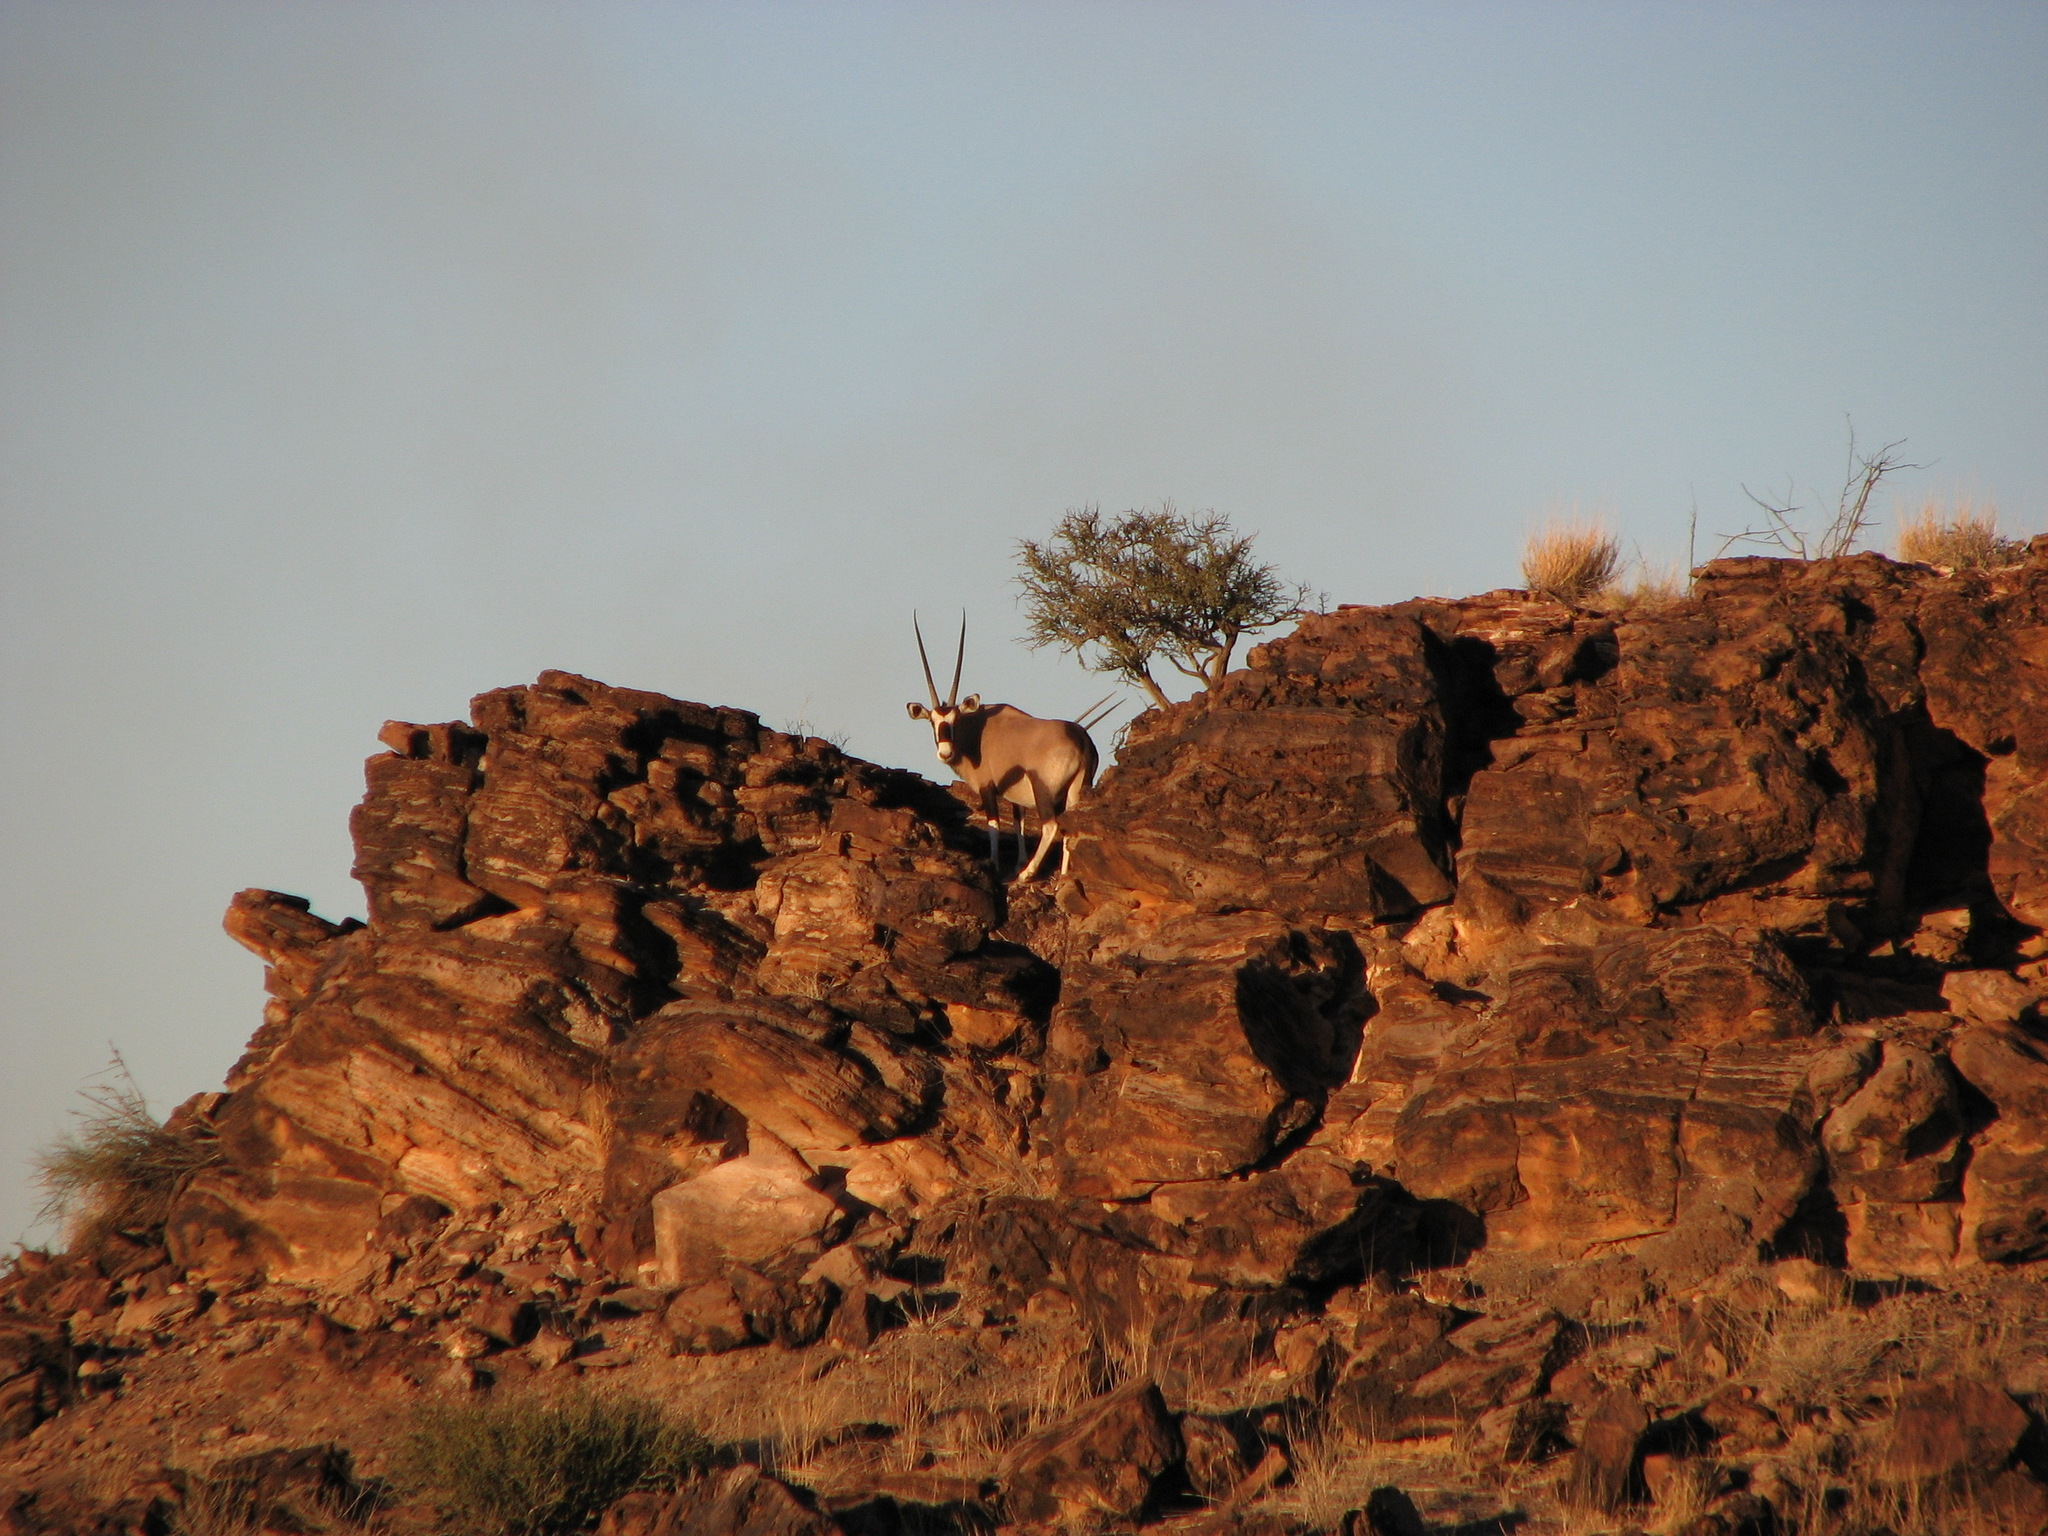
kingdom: Animalia
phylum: Chordata
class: Mammalia
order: Artiodactyla
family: Bovidae
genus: Oryx
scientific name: Oryx gazella
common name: Gemsbok
